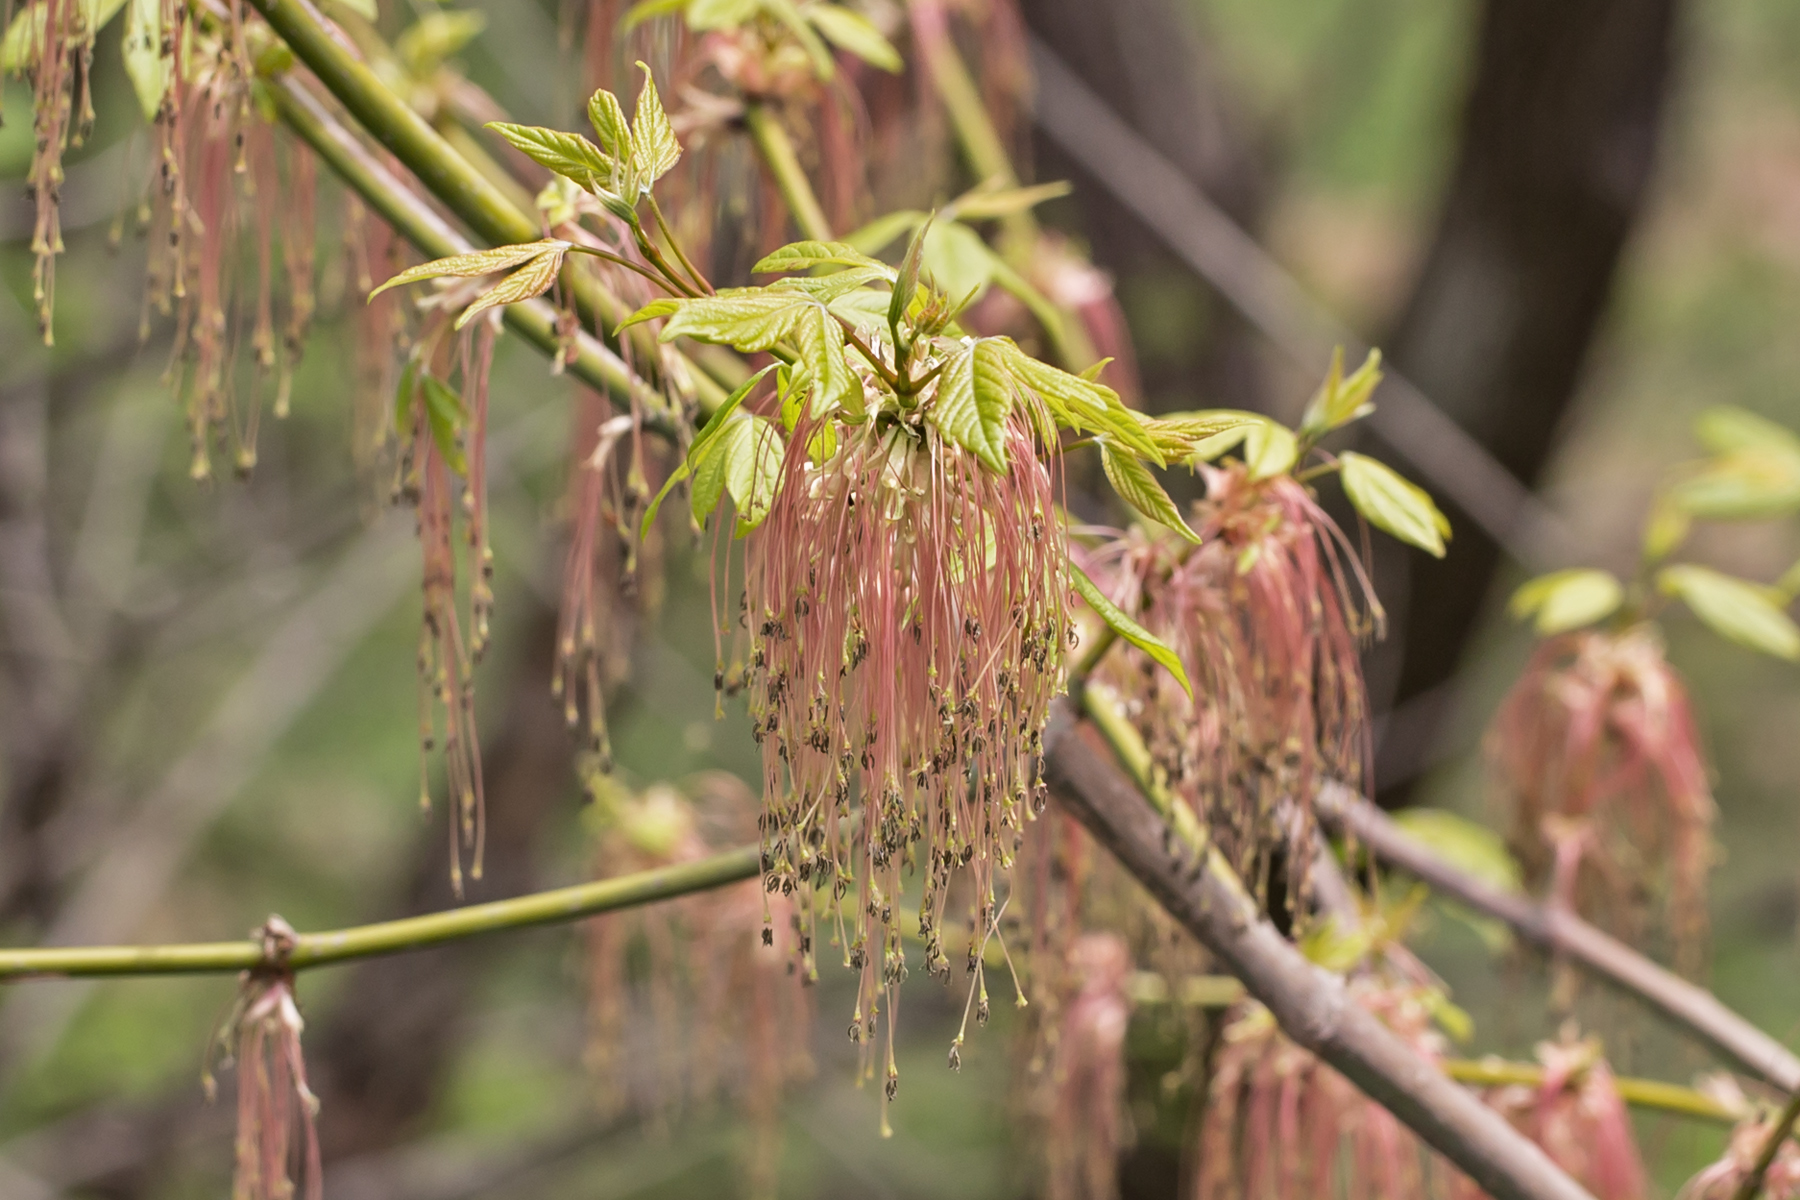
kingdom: Plantae
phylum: Tracheophyta
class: Magnoliopsida
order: Sapindales
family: Sapindaceae
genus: Acer
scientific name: Acer negundo
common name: Ashleaf maple
